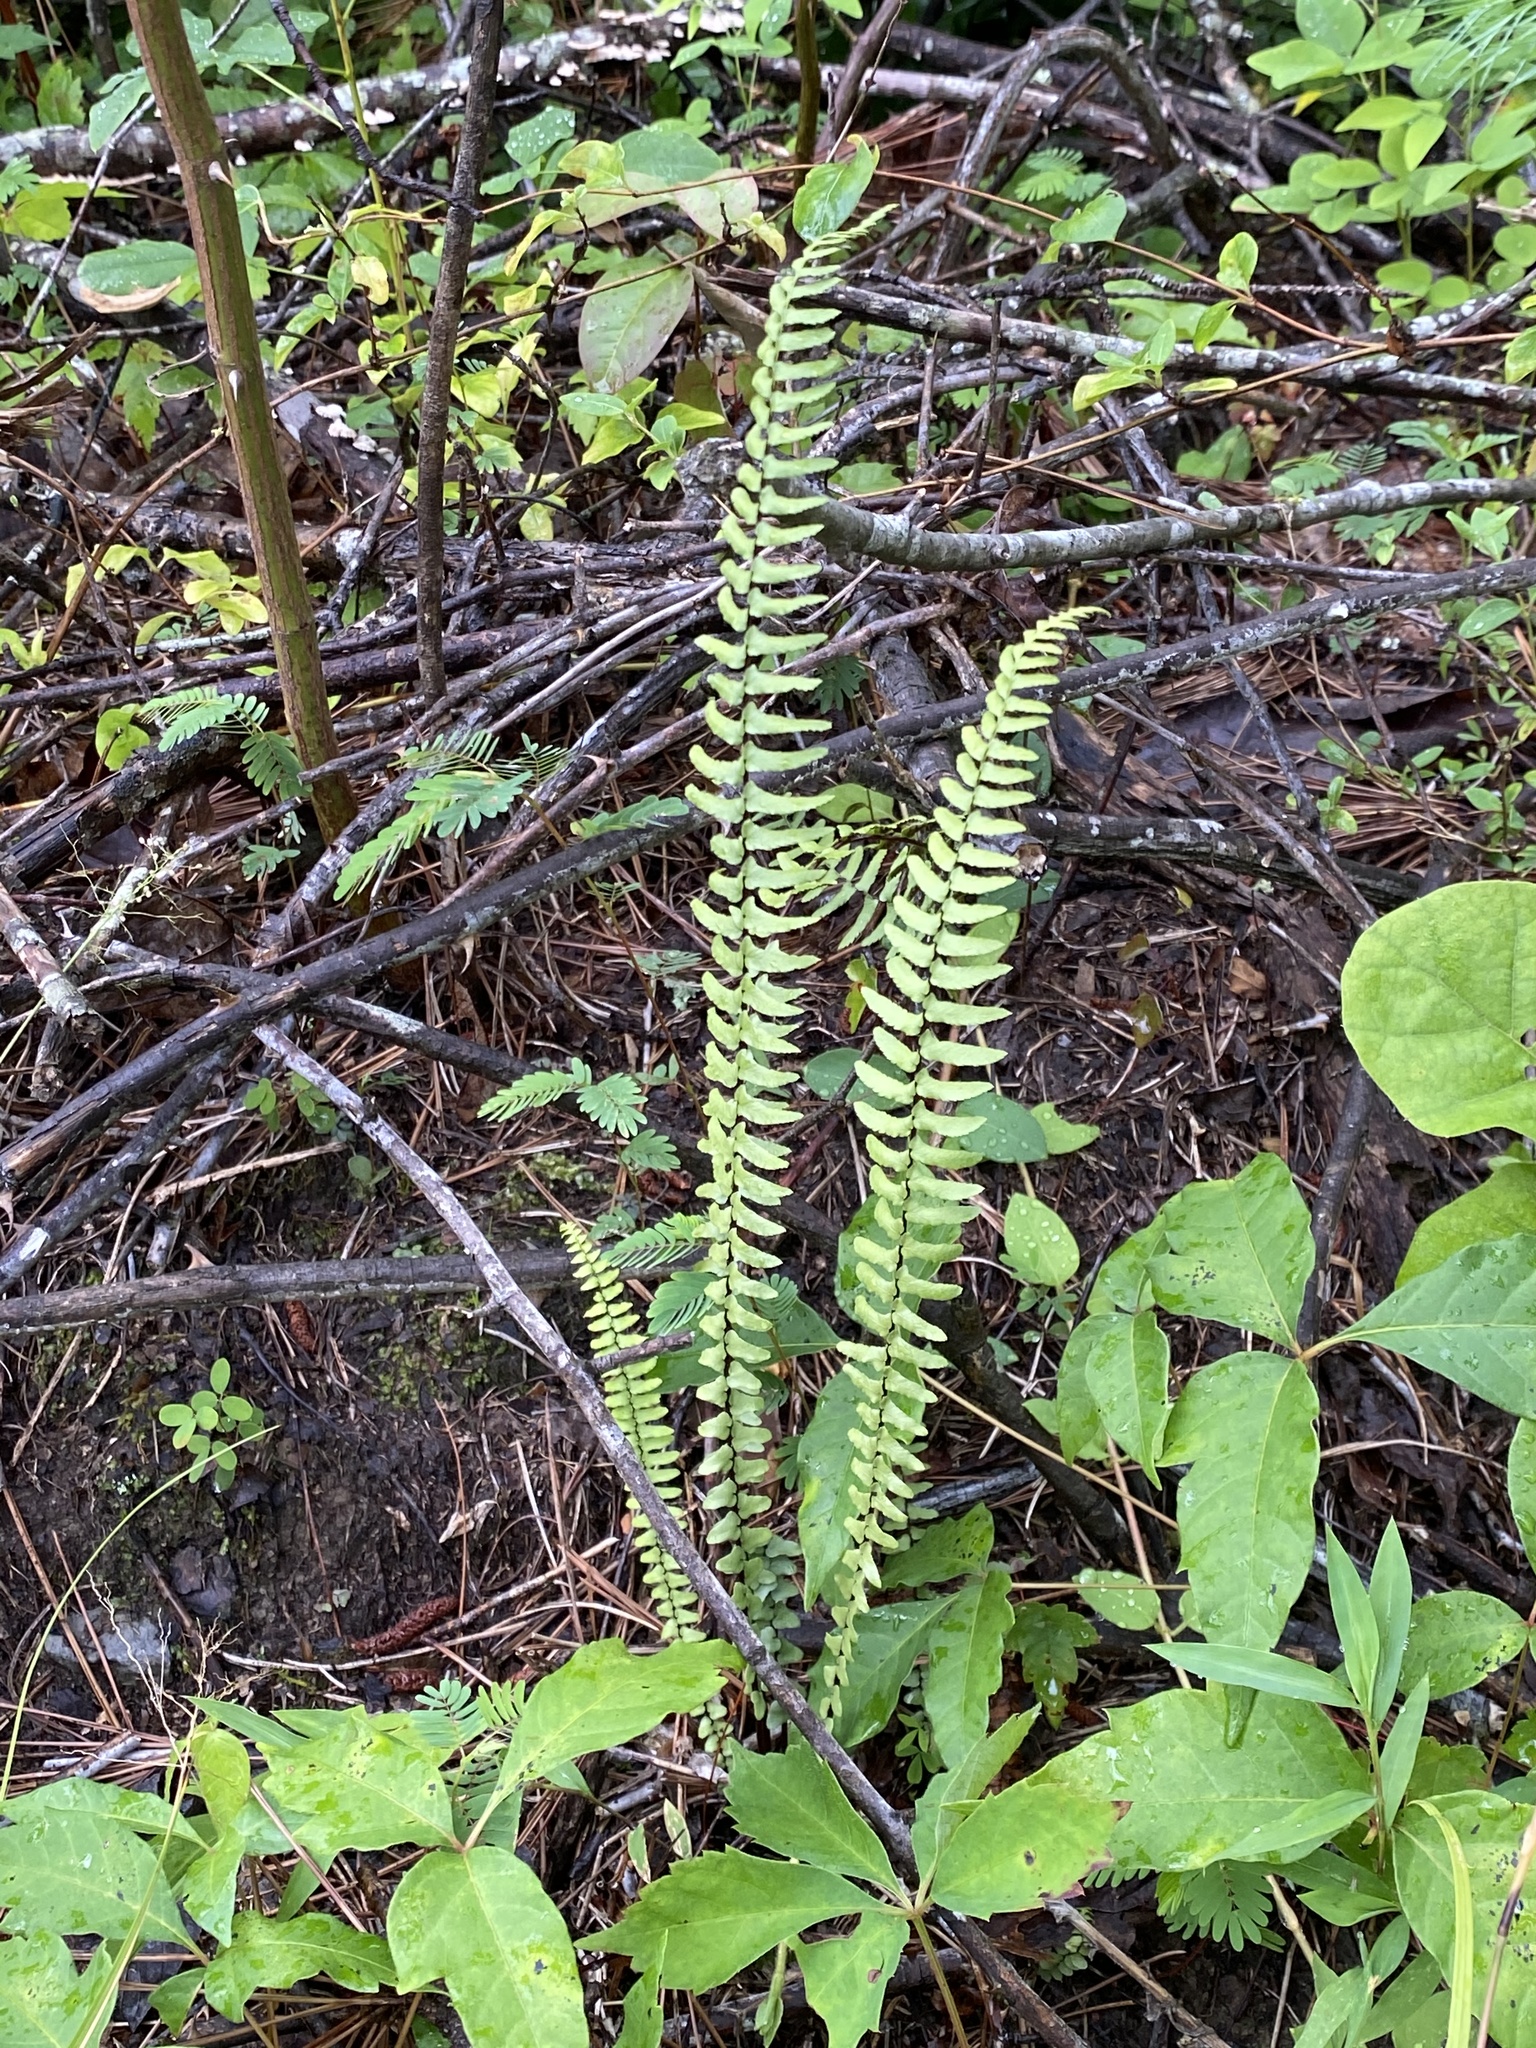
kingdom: Plantae
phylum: Tracheophyta
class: Polypodiopsida
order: Polypodiales
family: Aspleniaceae
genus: Asplenium
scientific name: Asplenium platyneuron
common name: Ebony spleenwort
